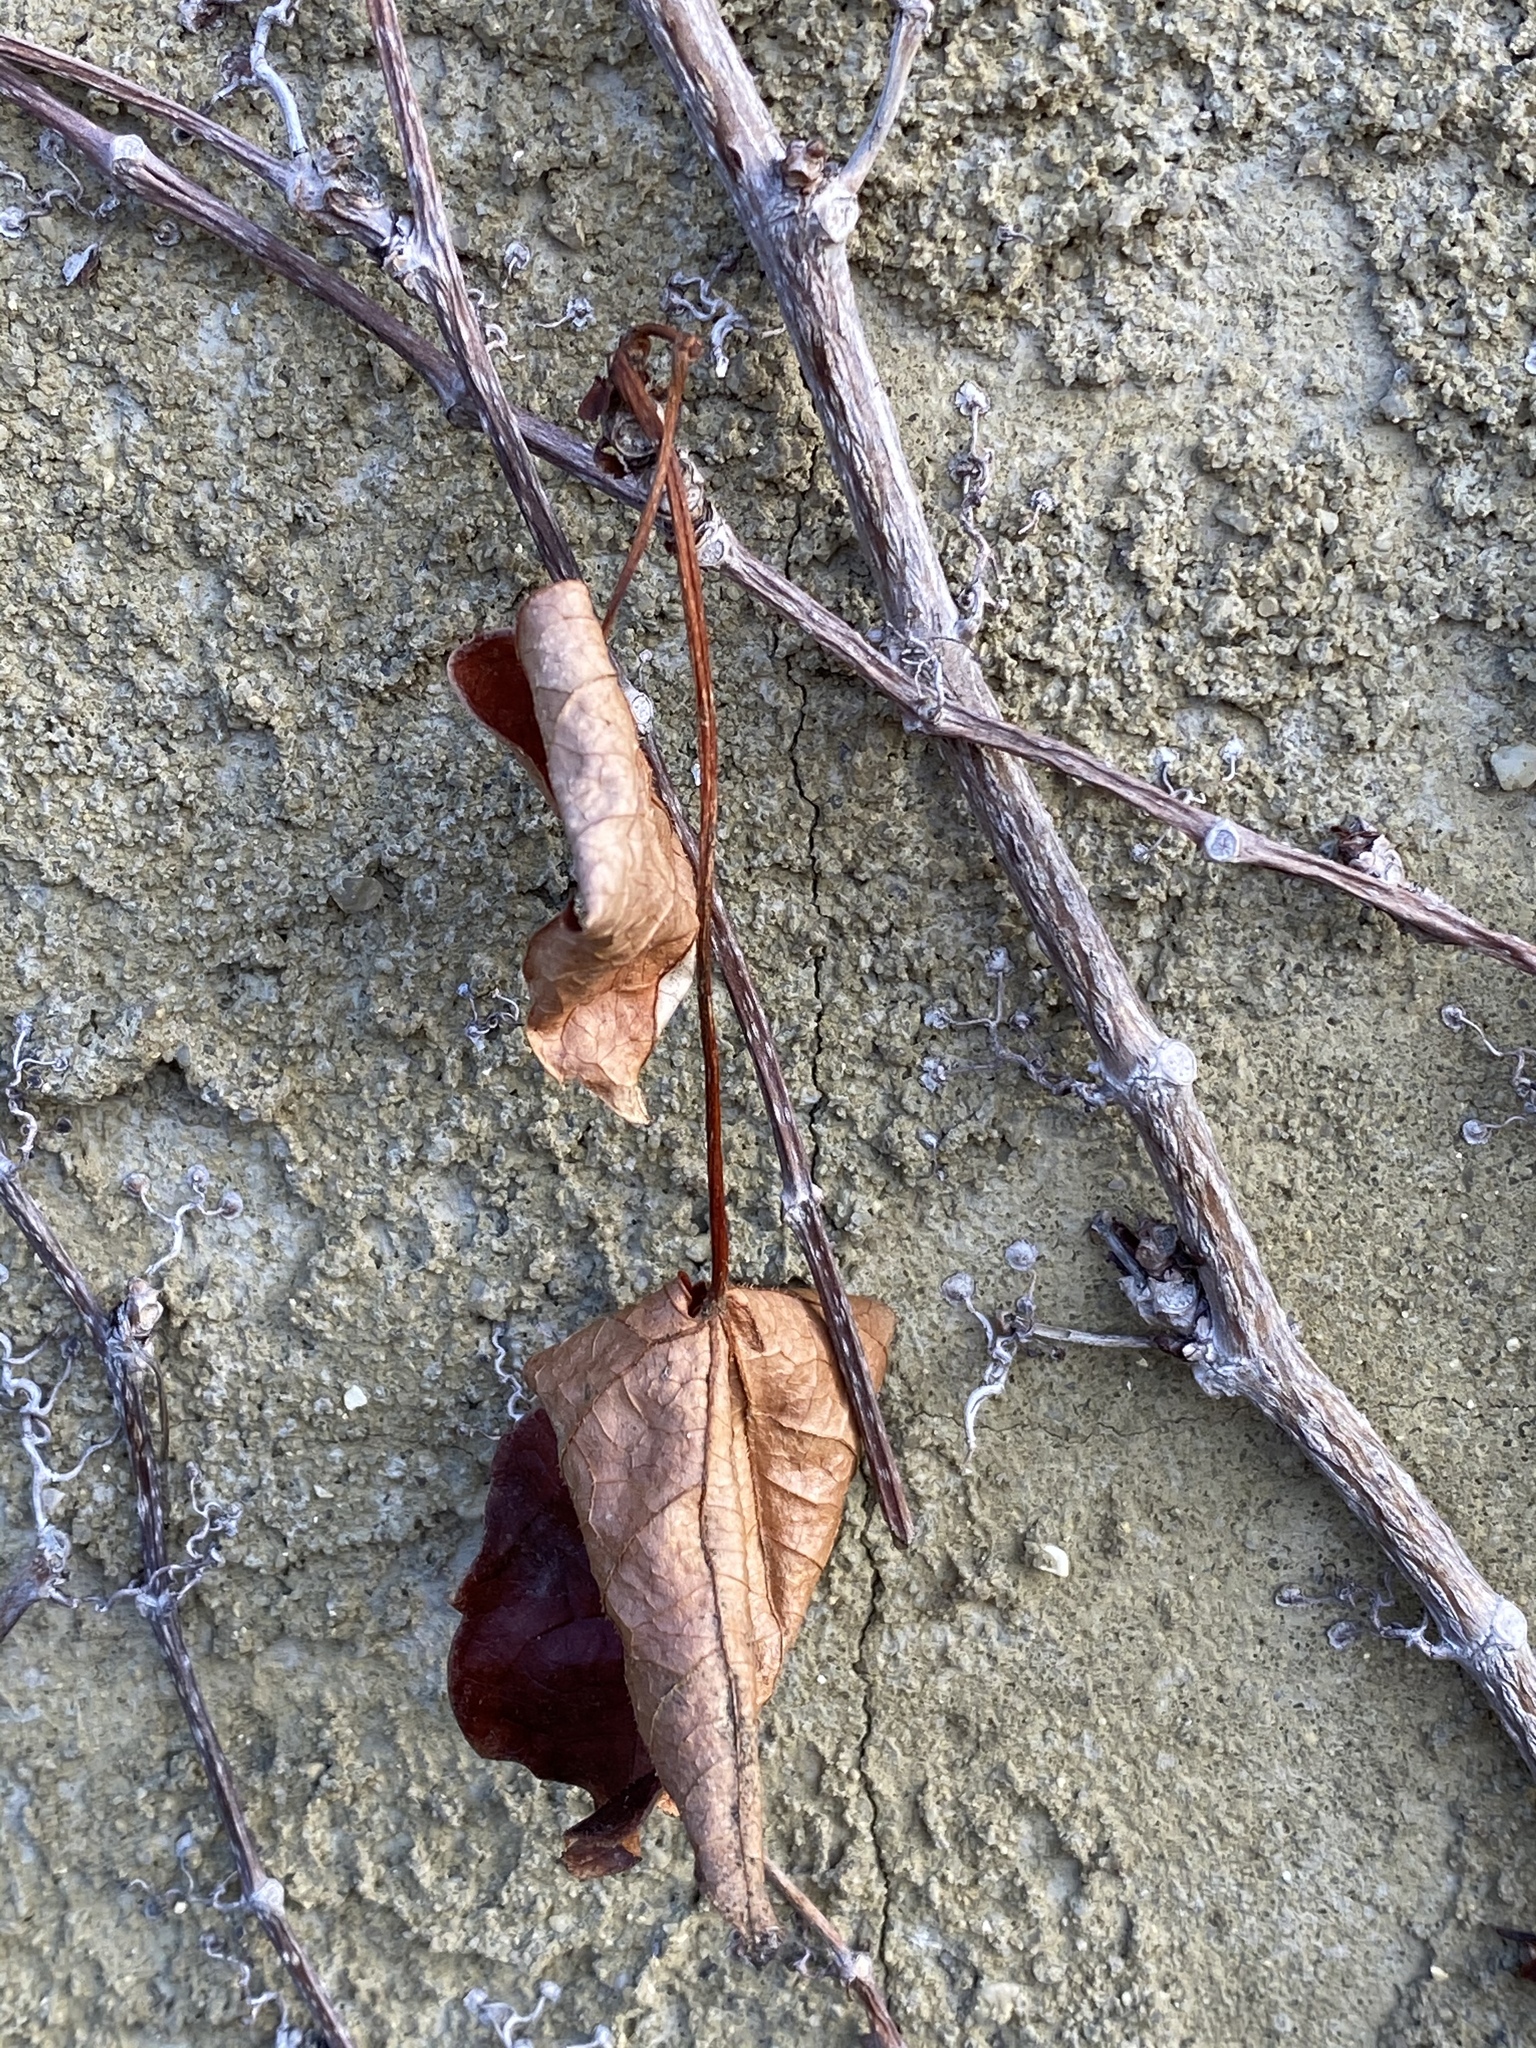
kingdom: Plantae
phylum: Tracheophyta
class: Magnoliopsida
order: Vitales
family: Vitaceae
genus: Parthenocissus
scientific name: Parthenocissus tricuspidata
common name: Boston ivy
